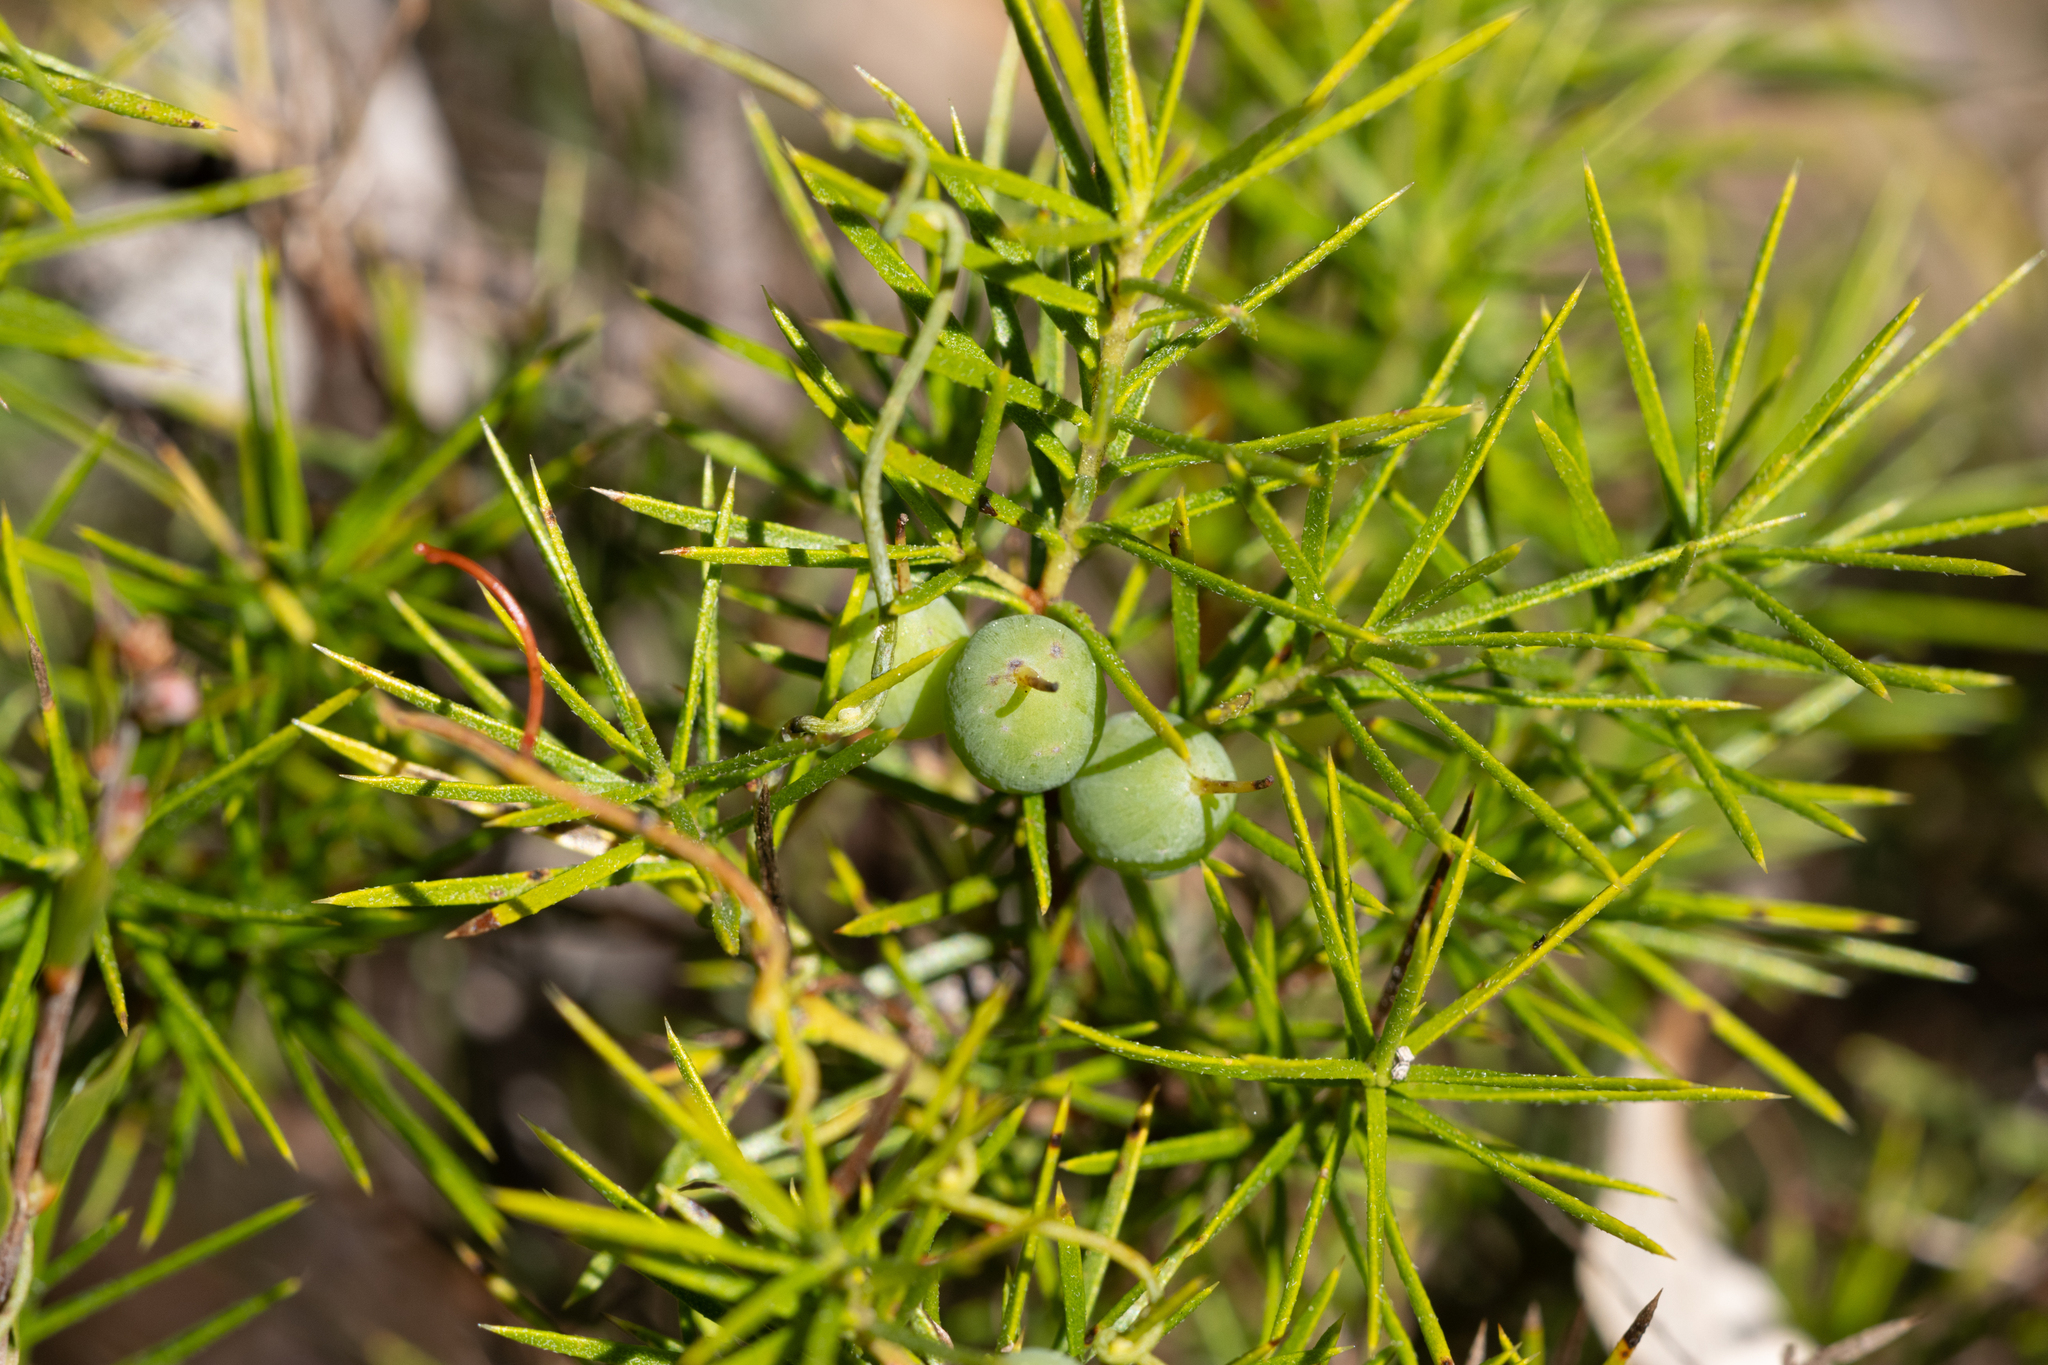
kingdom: Plantae
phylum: Tracheophyta
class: Magnoliopsida
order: Proteales
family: Proteaceae
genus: Persoonia
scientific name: Persoonia juniperina
